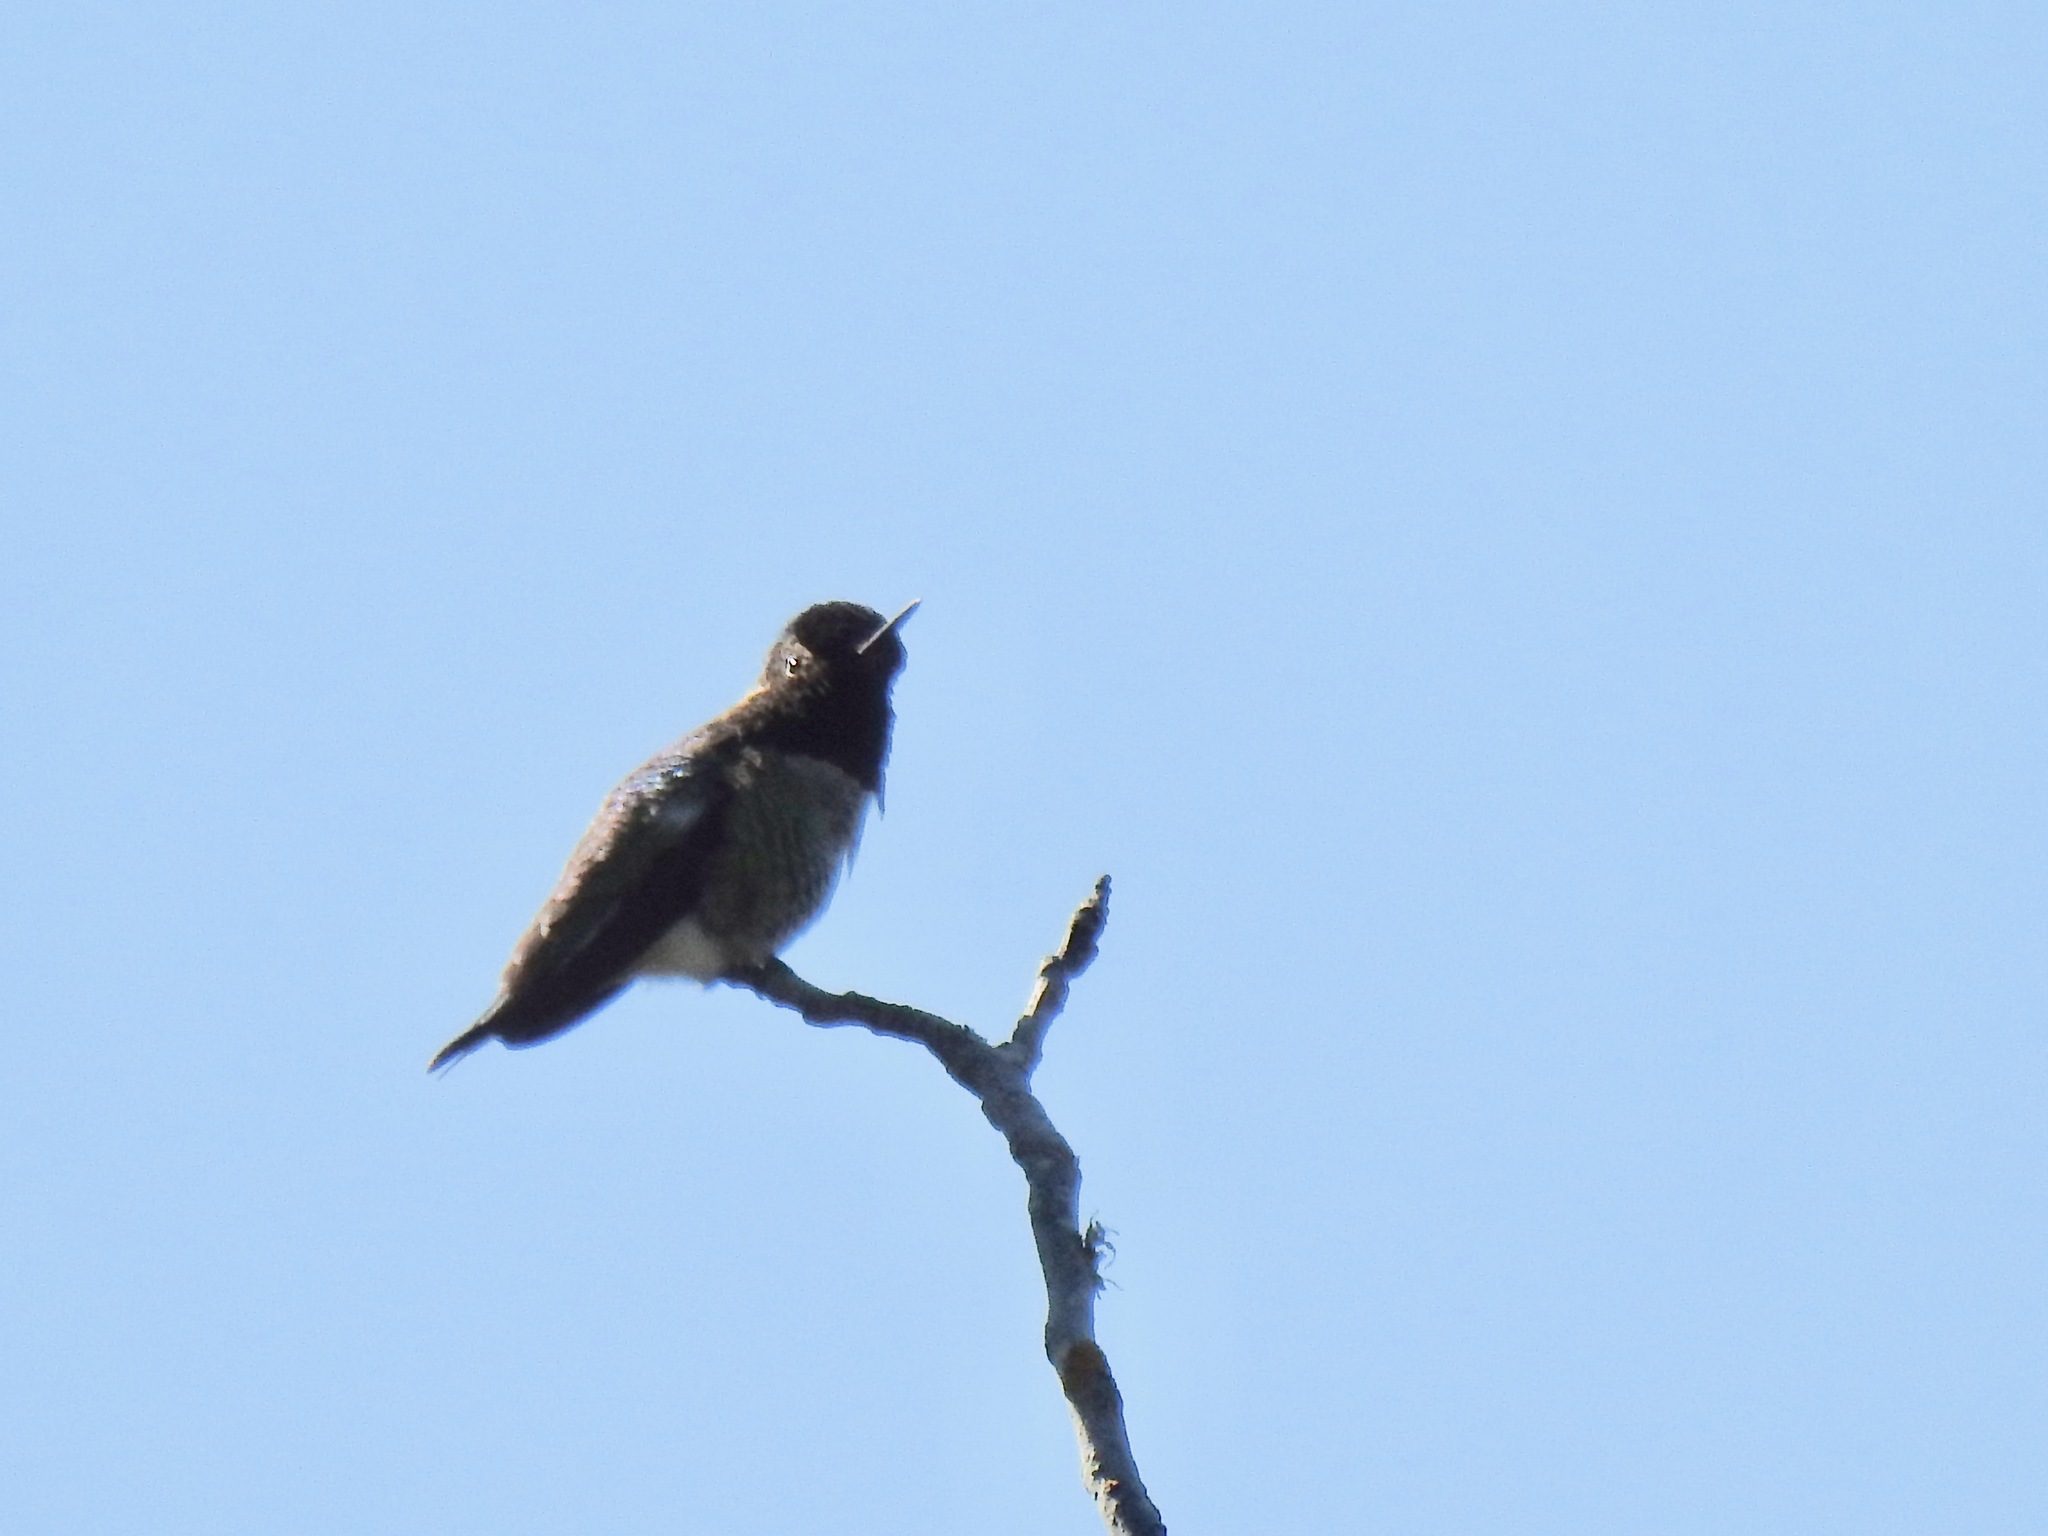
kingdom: Animalia
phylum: Chordata
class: Aves
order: Apodiformes
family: Trochilidae
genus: Calypte
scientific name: Calypte anna
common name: Anna's hummingbird
